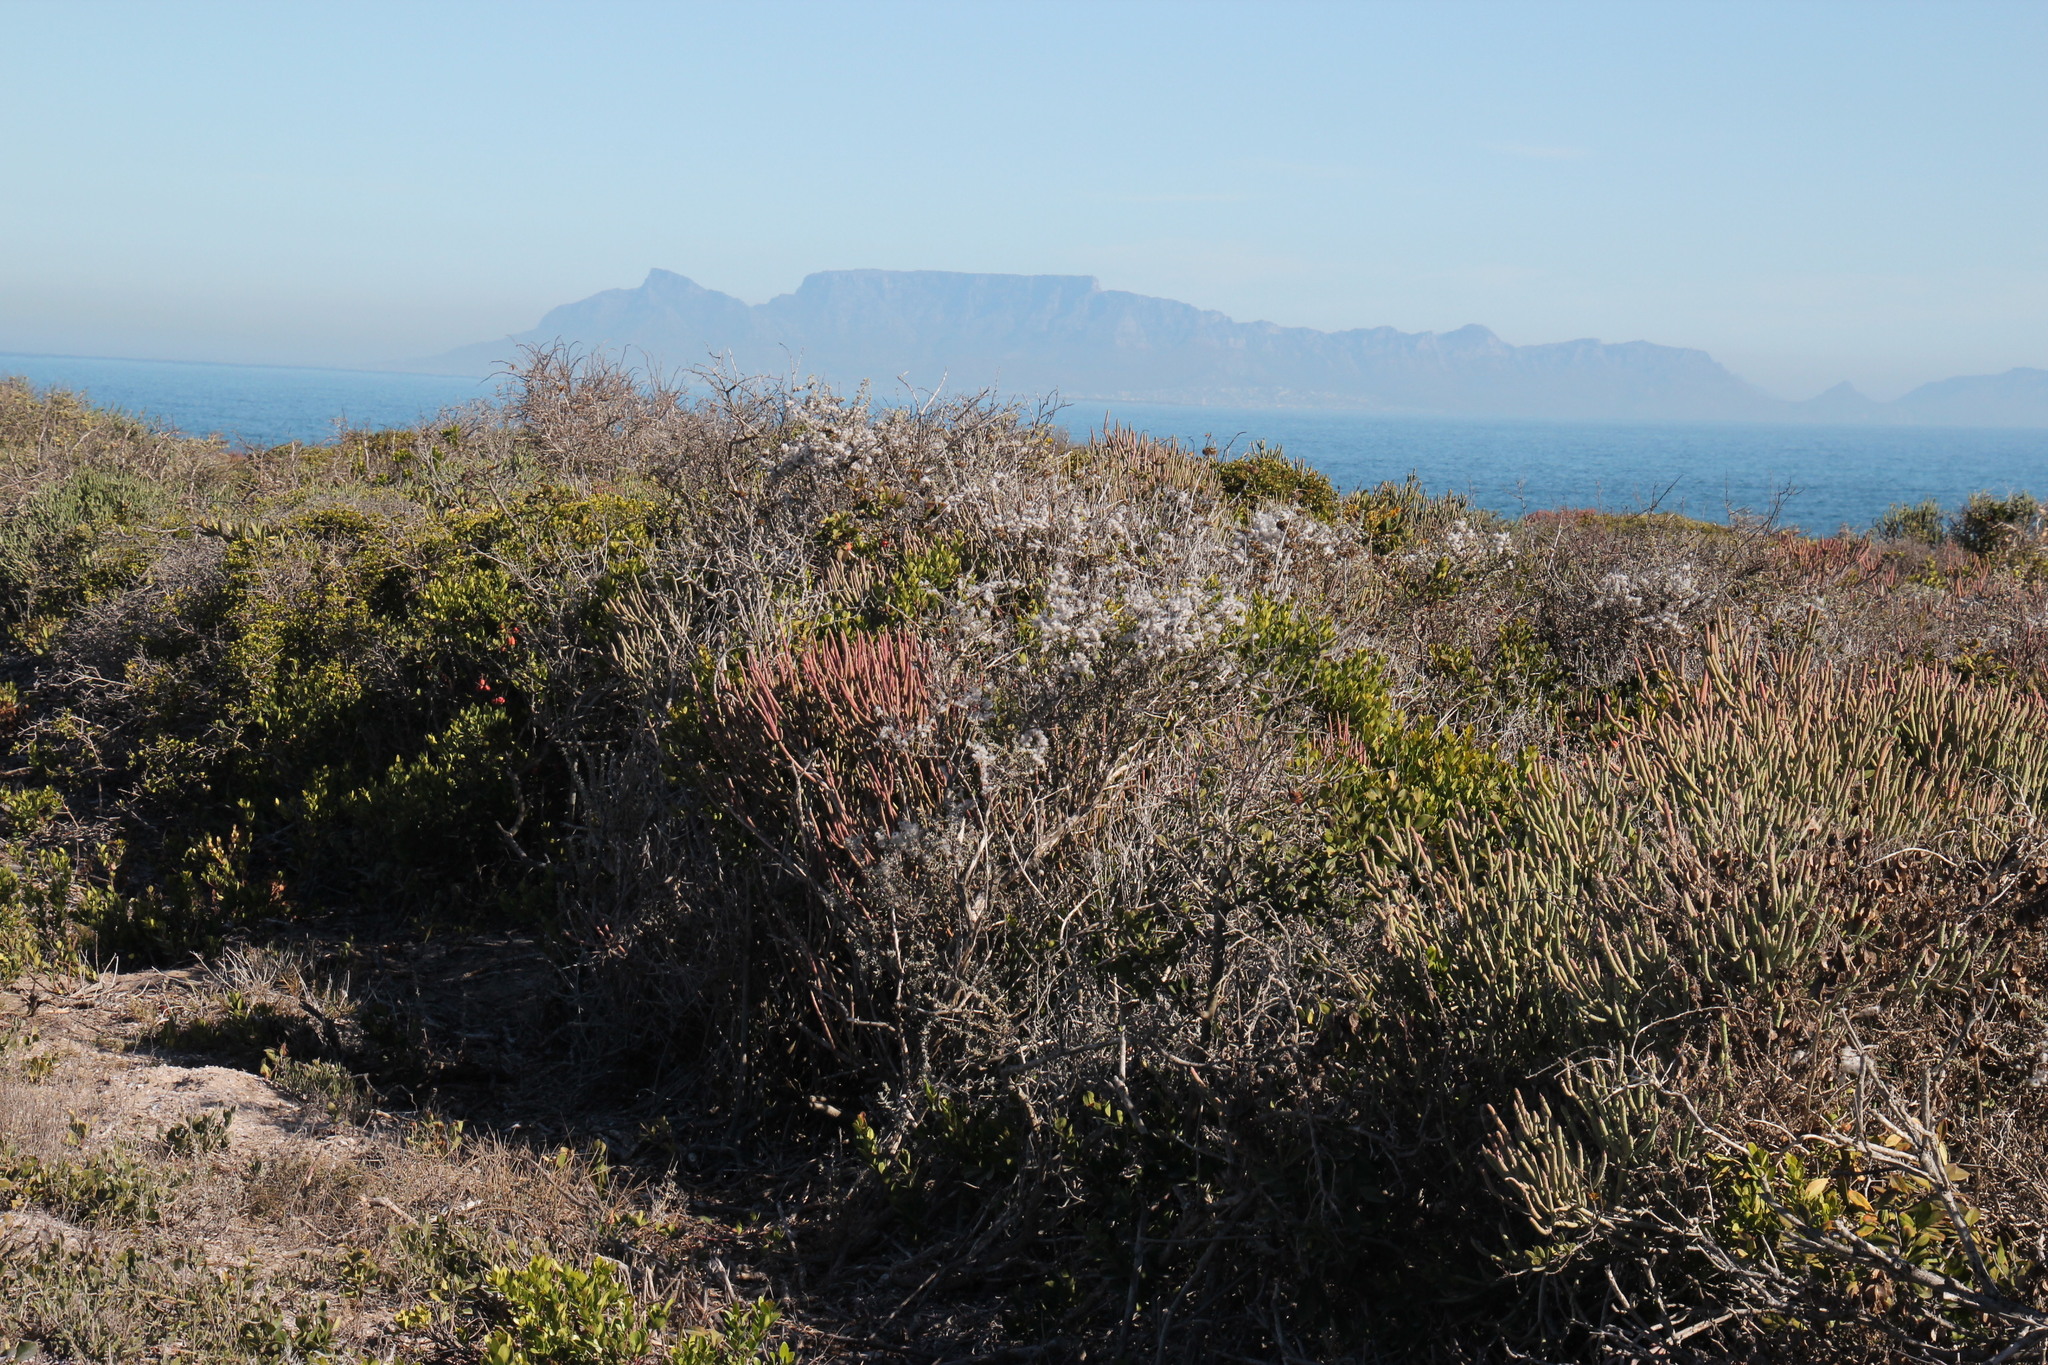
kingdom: Plantae
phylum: Tracheophyta
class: Magnoliopsida
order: Asterales
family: Asteraceae
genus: Eriocephalus
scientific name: Eriocephalus racemosus
